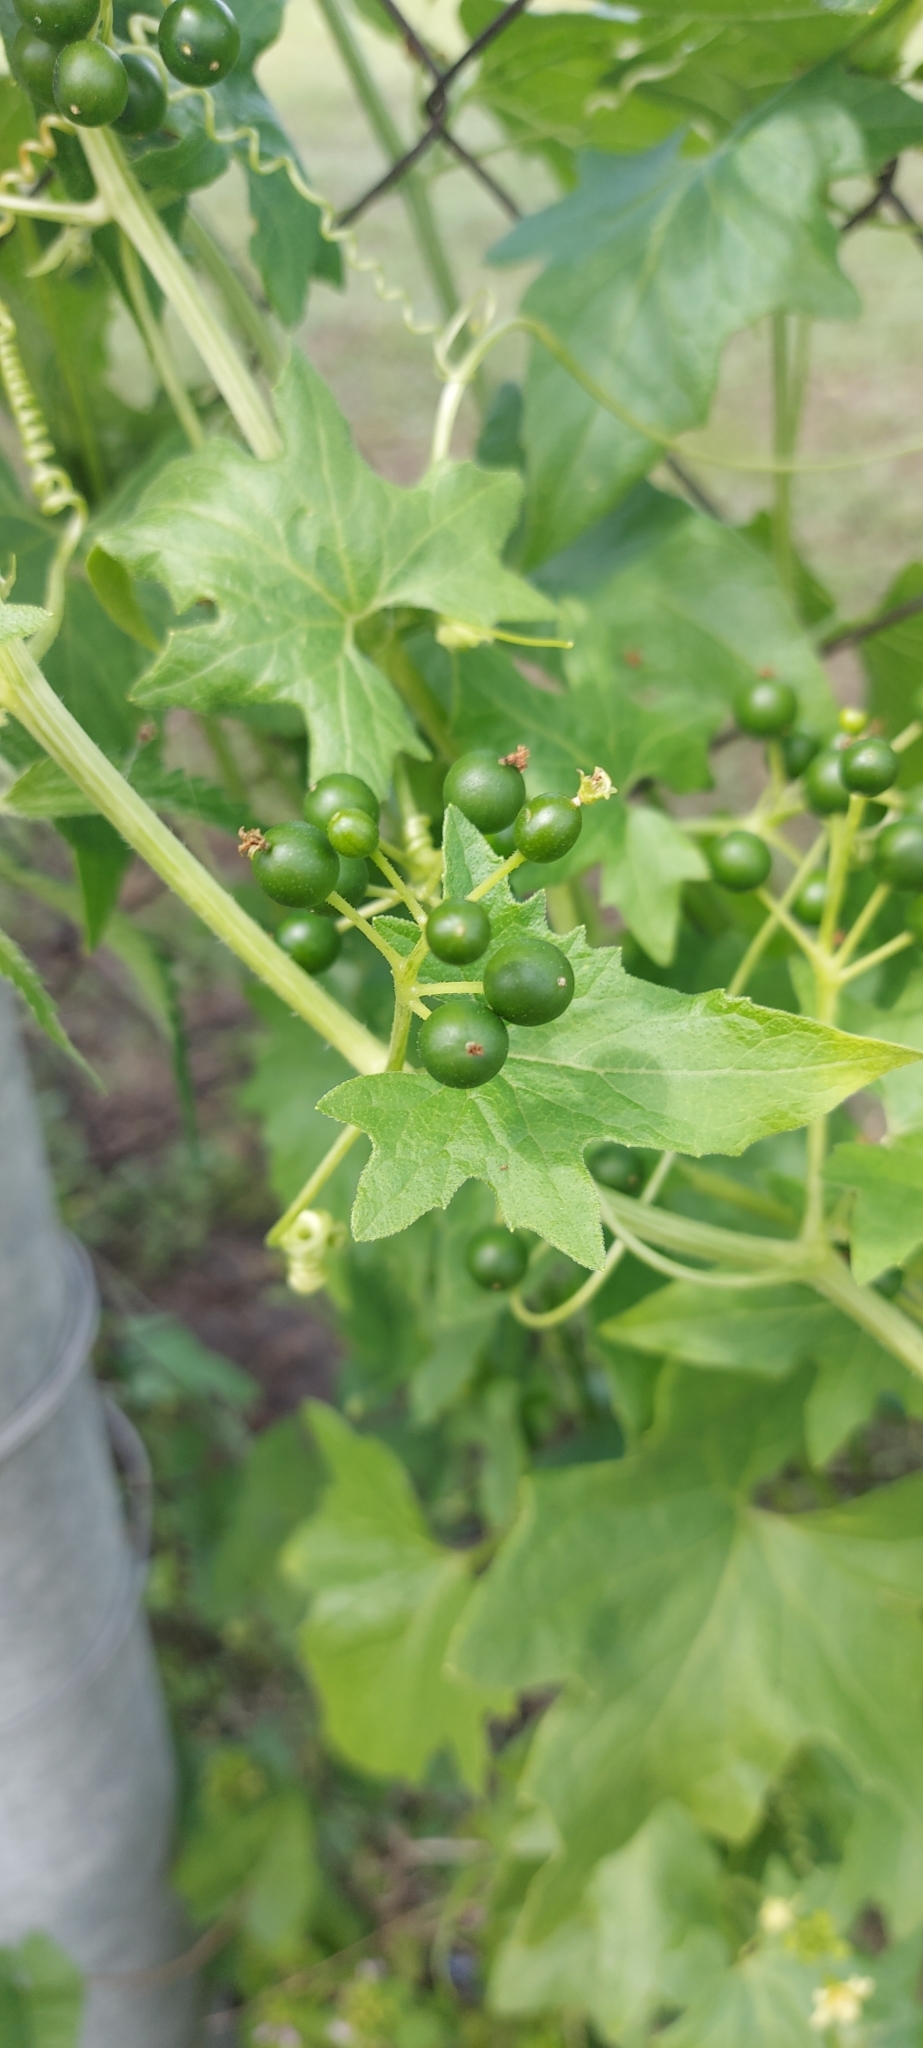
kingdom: Plantae
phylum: Tracheophyta
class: Magnoliopsida
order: Cucurbitales
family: Cucurbitaceae
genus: Bryonia
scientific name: Bryonia alba
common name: White bryony
